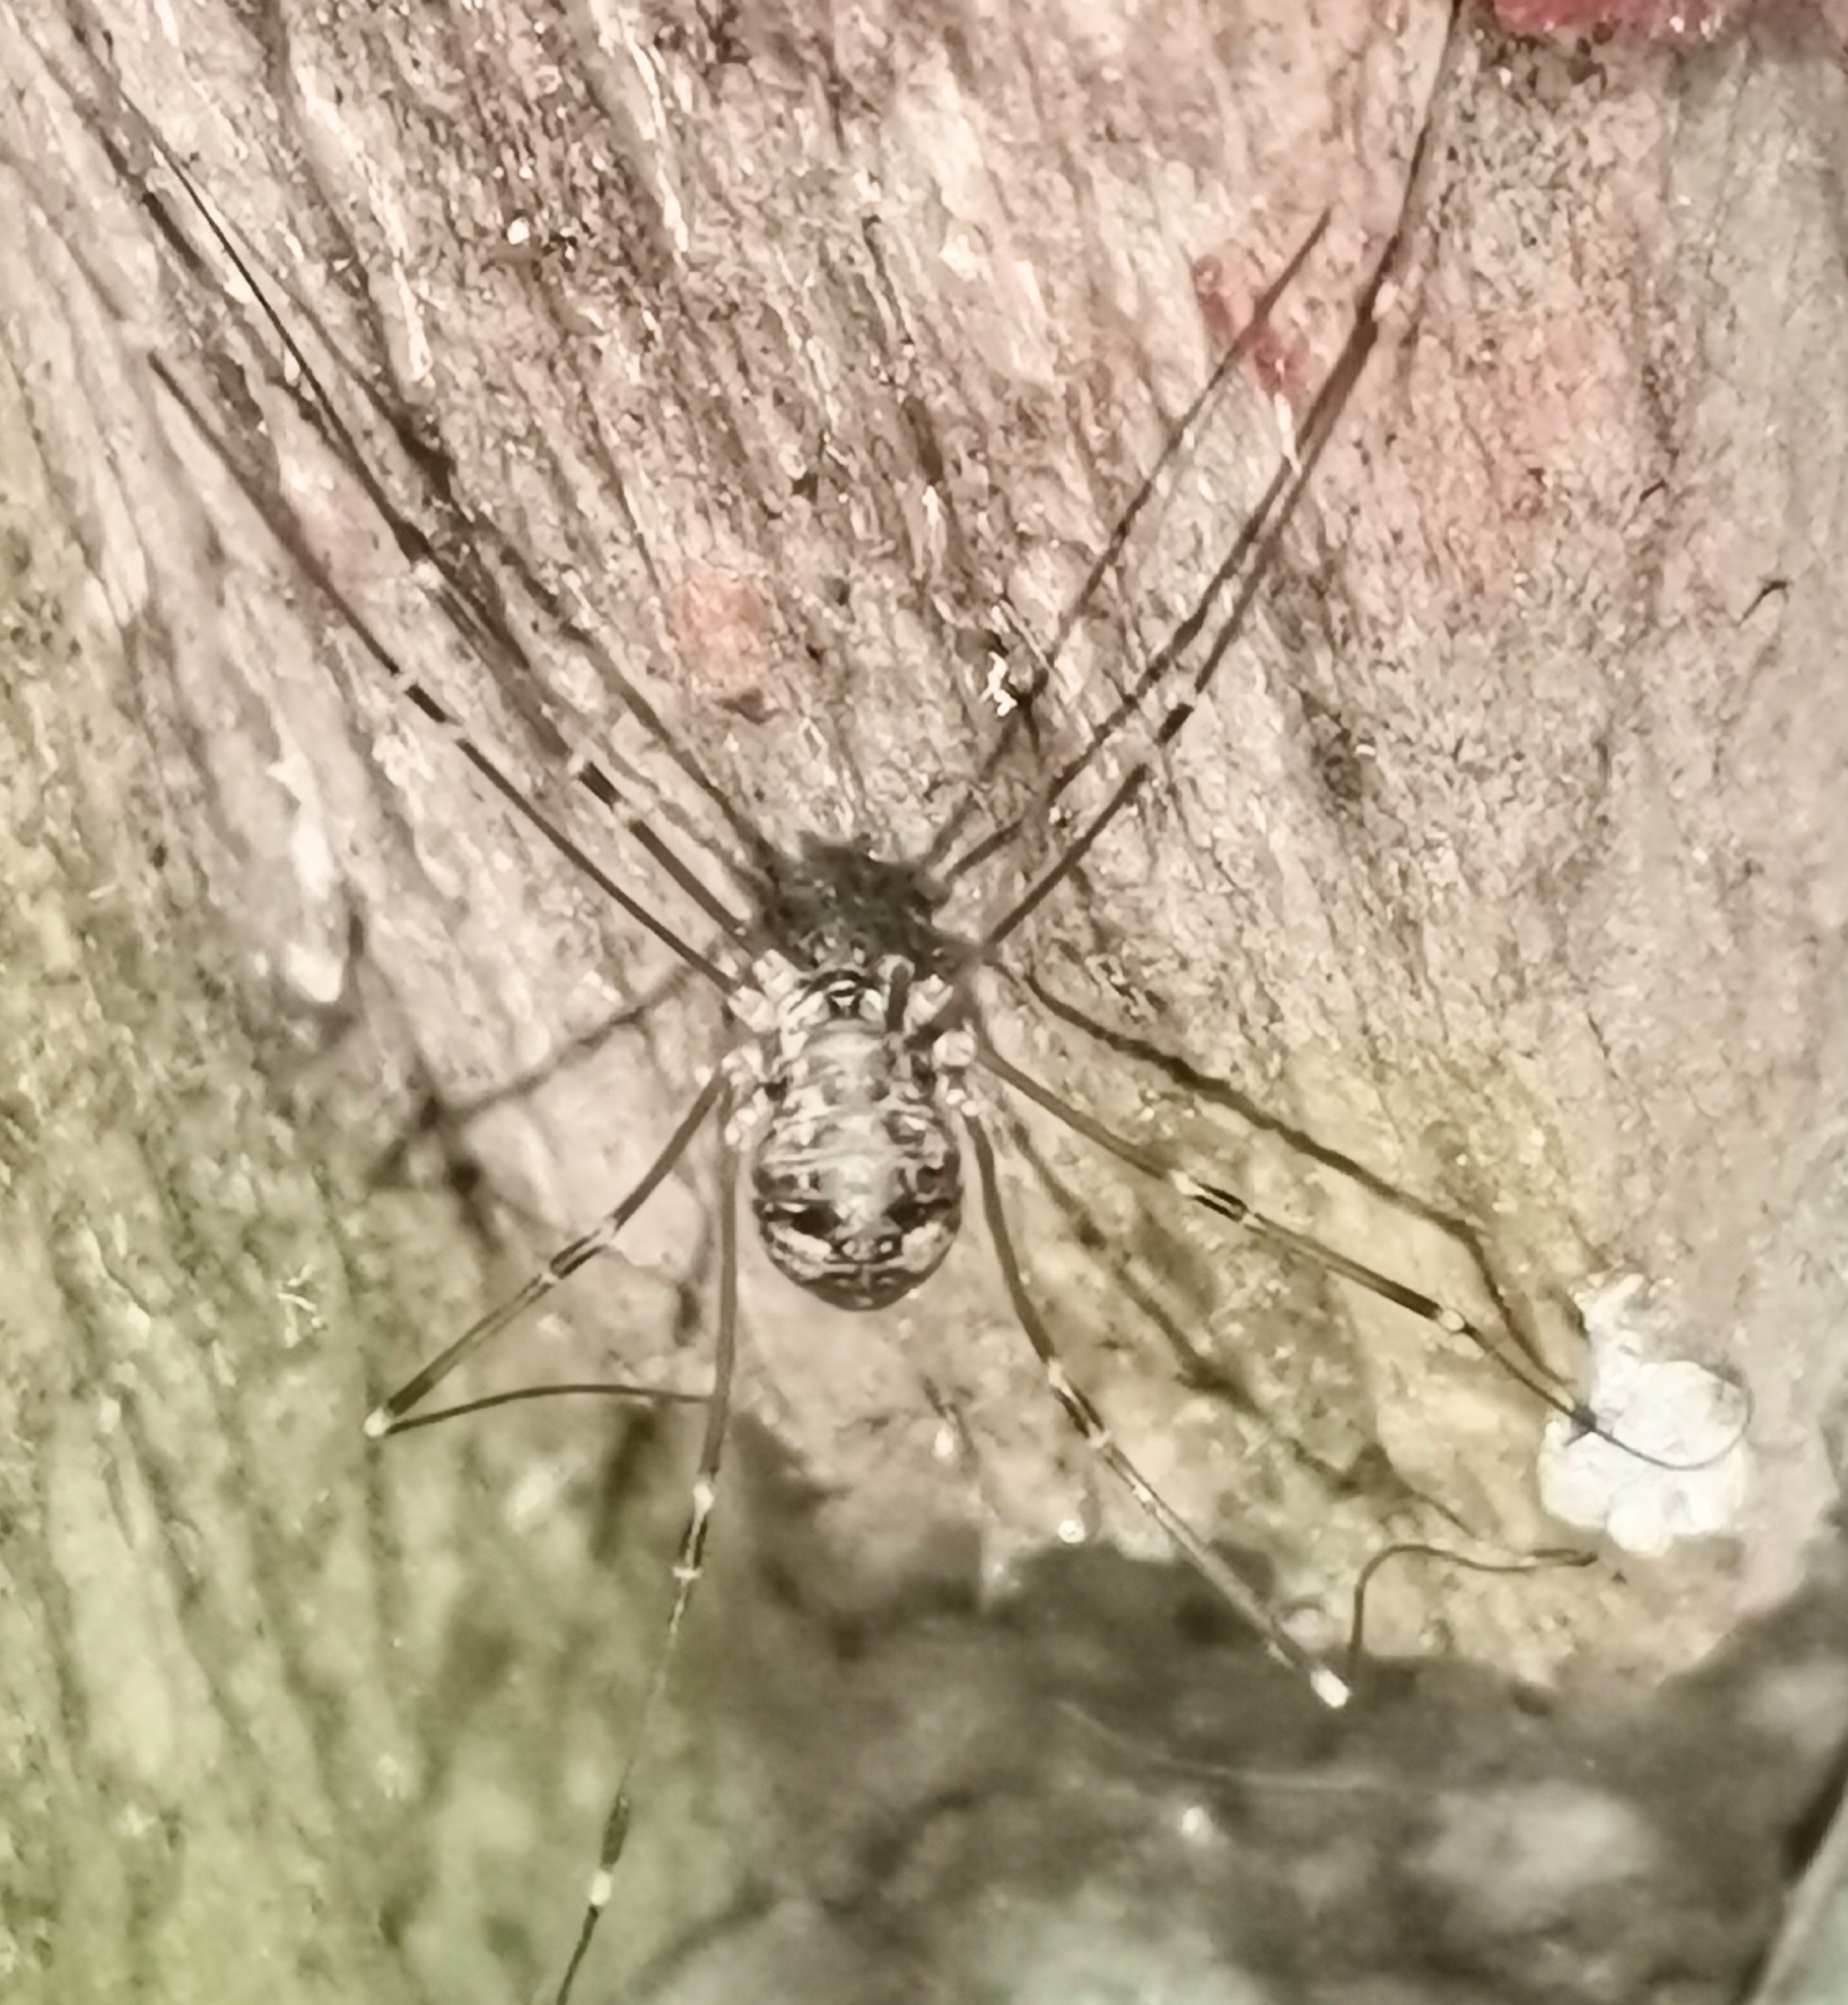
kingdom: Animalia
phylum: Arthropoda
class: Arachnida
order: Opiliones
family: Sclerosomatidae
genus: Leiobunum
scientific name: Leiobunum gracile
